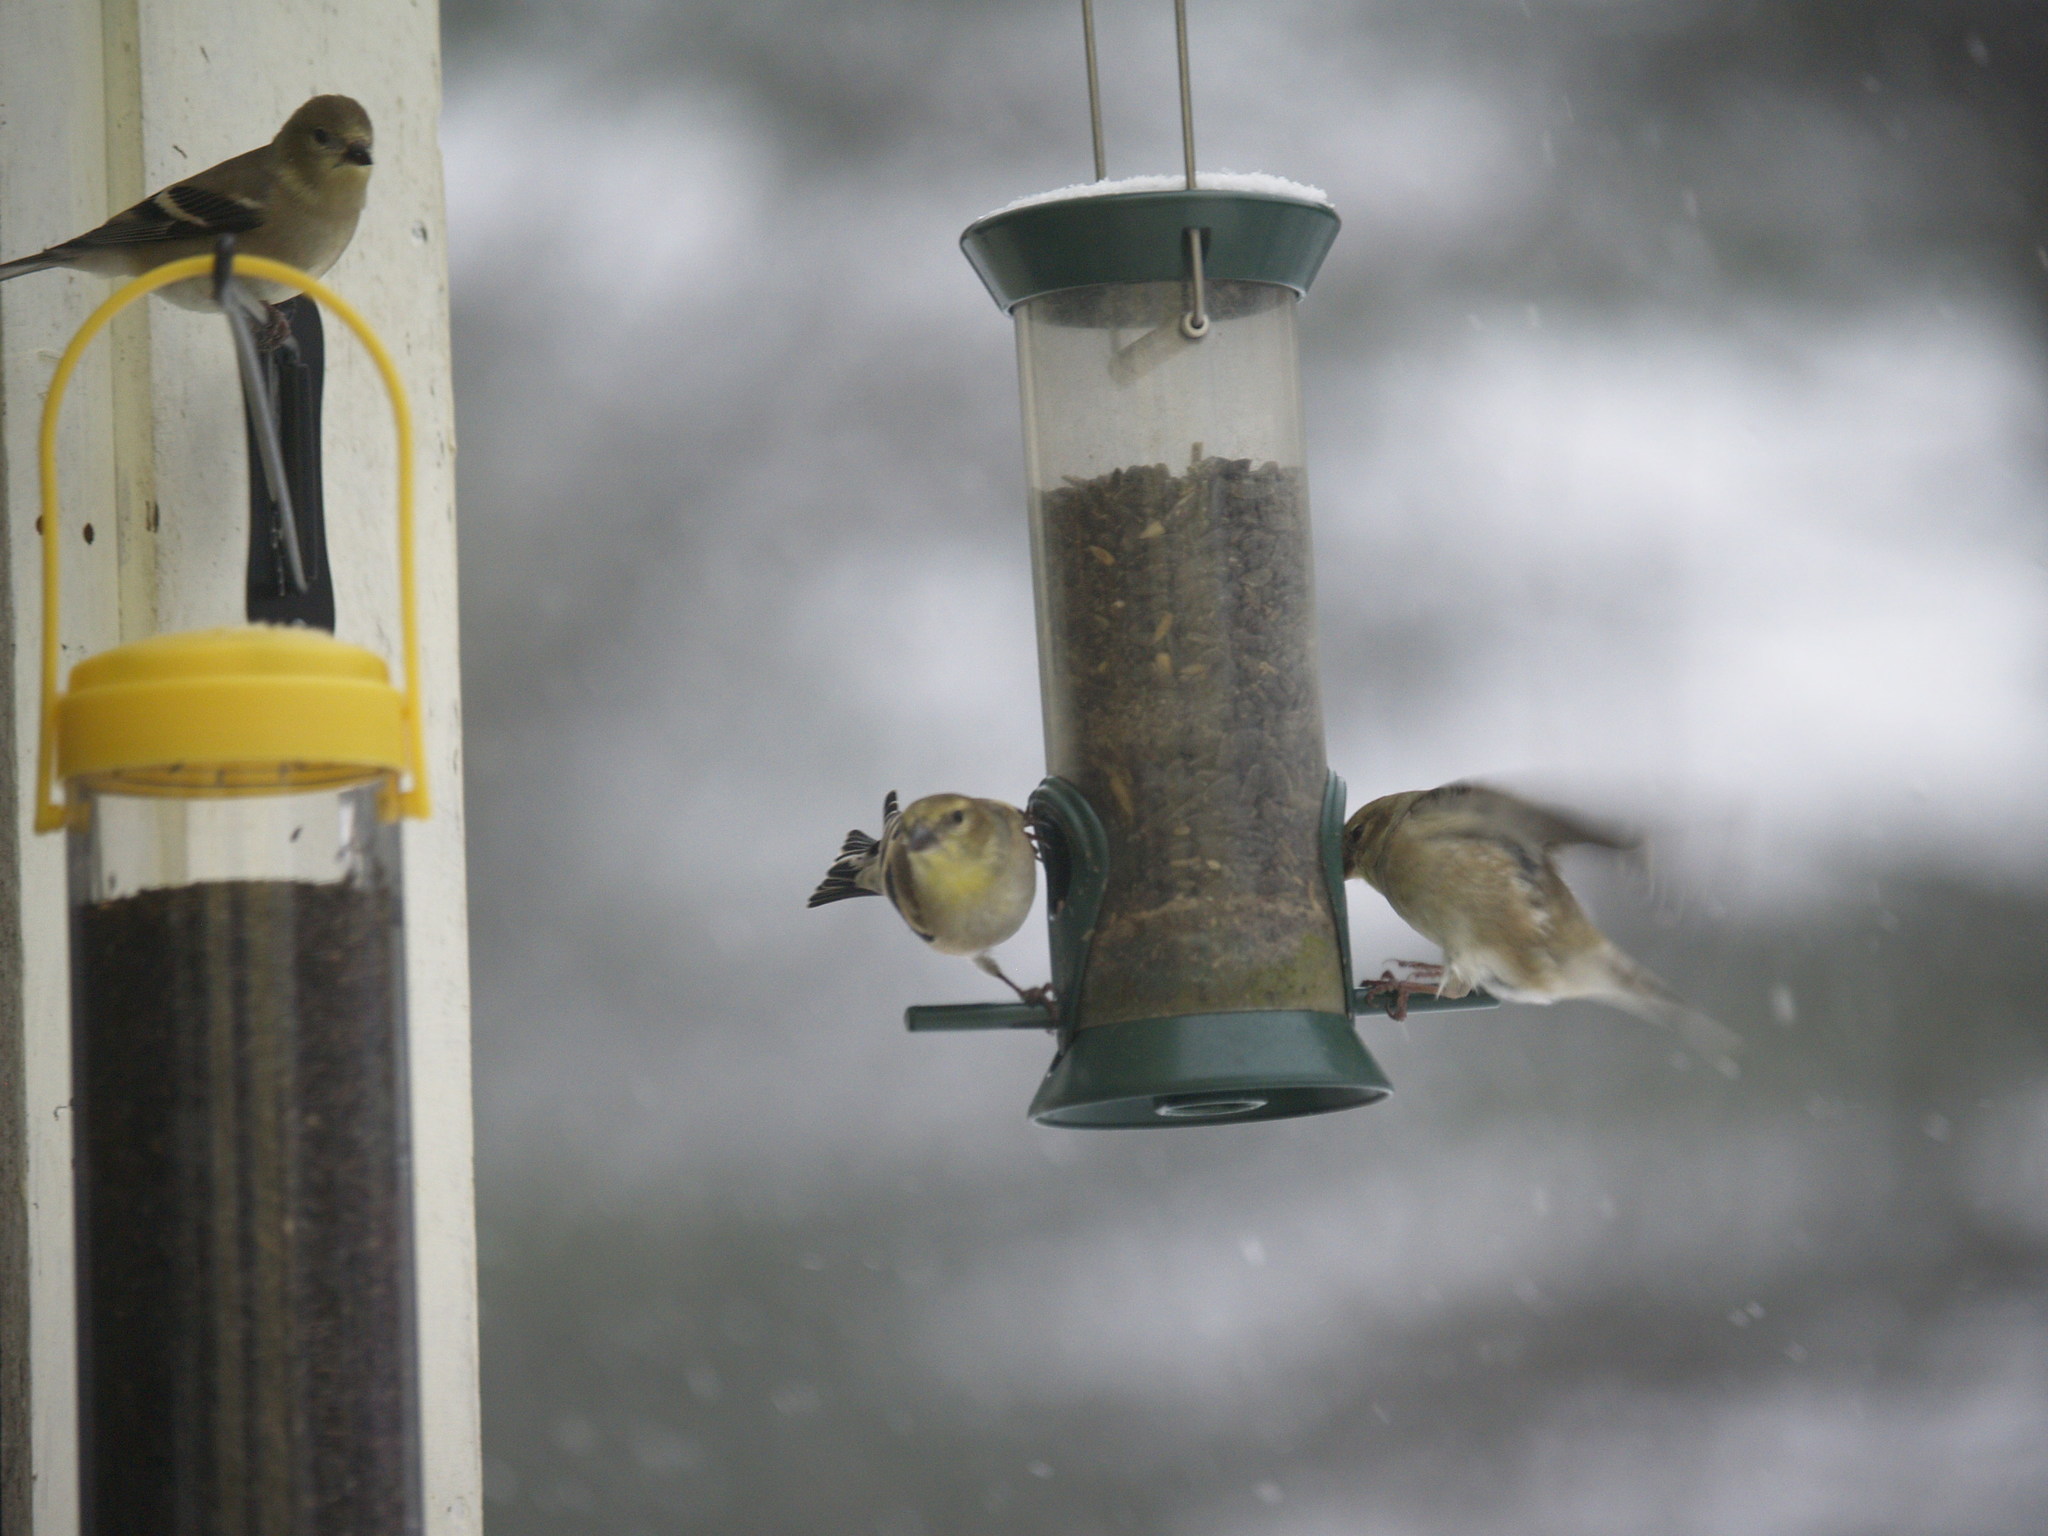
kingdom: Animalia
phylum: Chordata
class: Aves
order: Passeriformes
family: Fringillidae
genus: Spinus
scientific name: Spinus tristis
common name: American goldfinch
